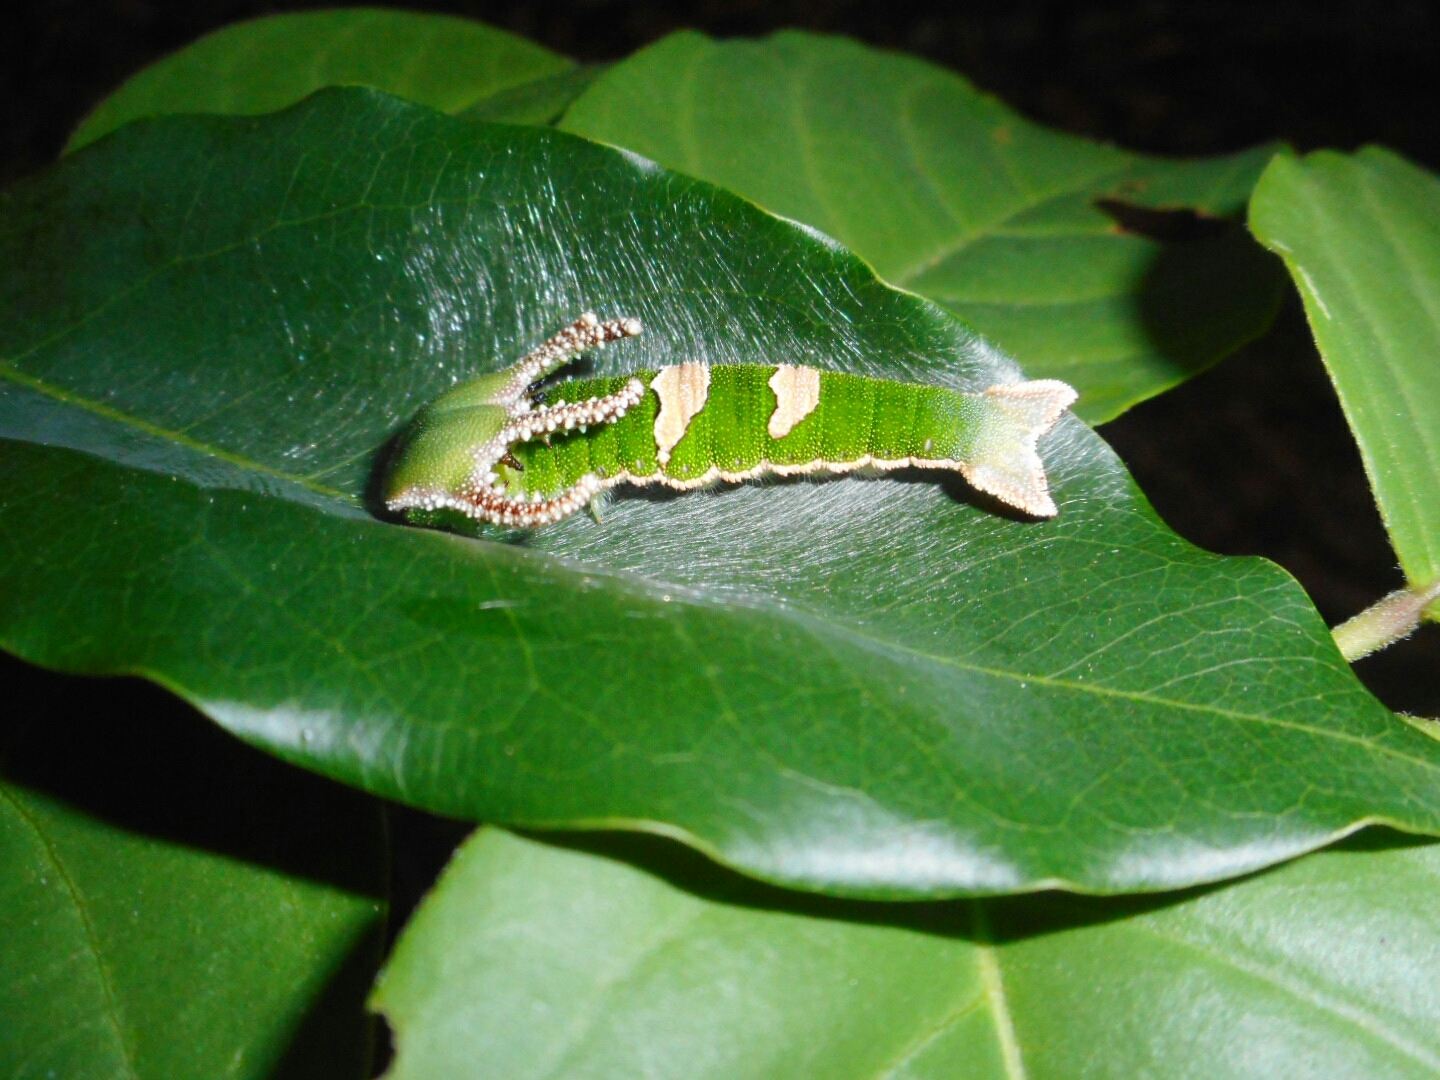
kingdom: Animalia
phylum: Arthropoda
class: Insecta
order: Lepidoptera
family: Nymphalidae
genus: Polyura
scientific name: Polyura delphis
